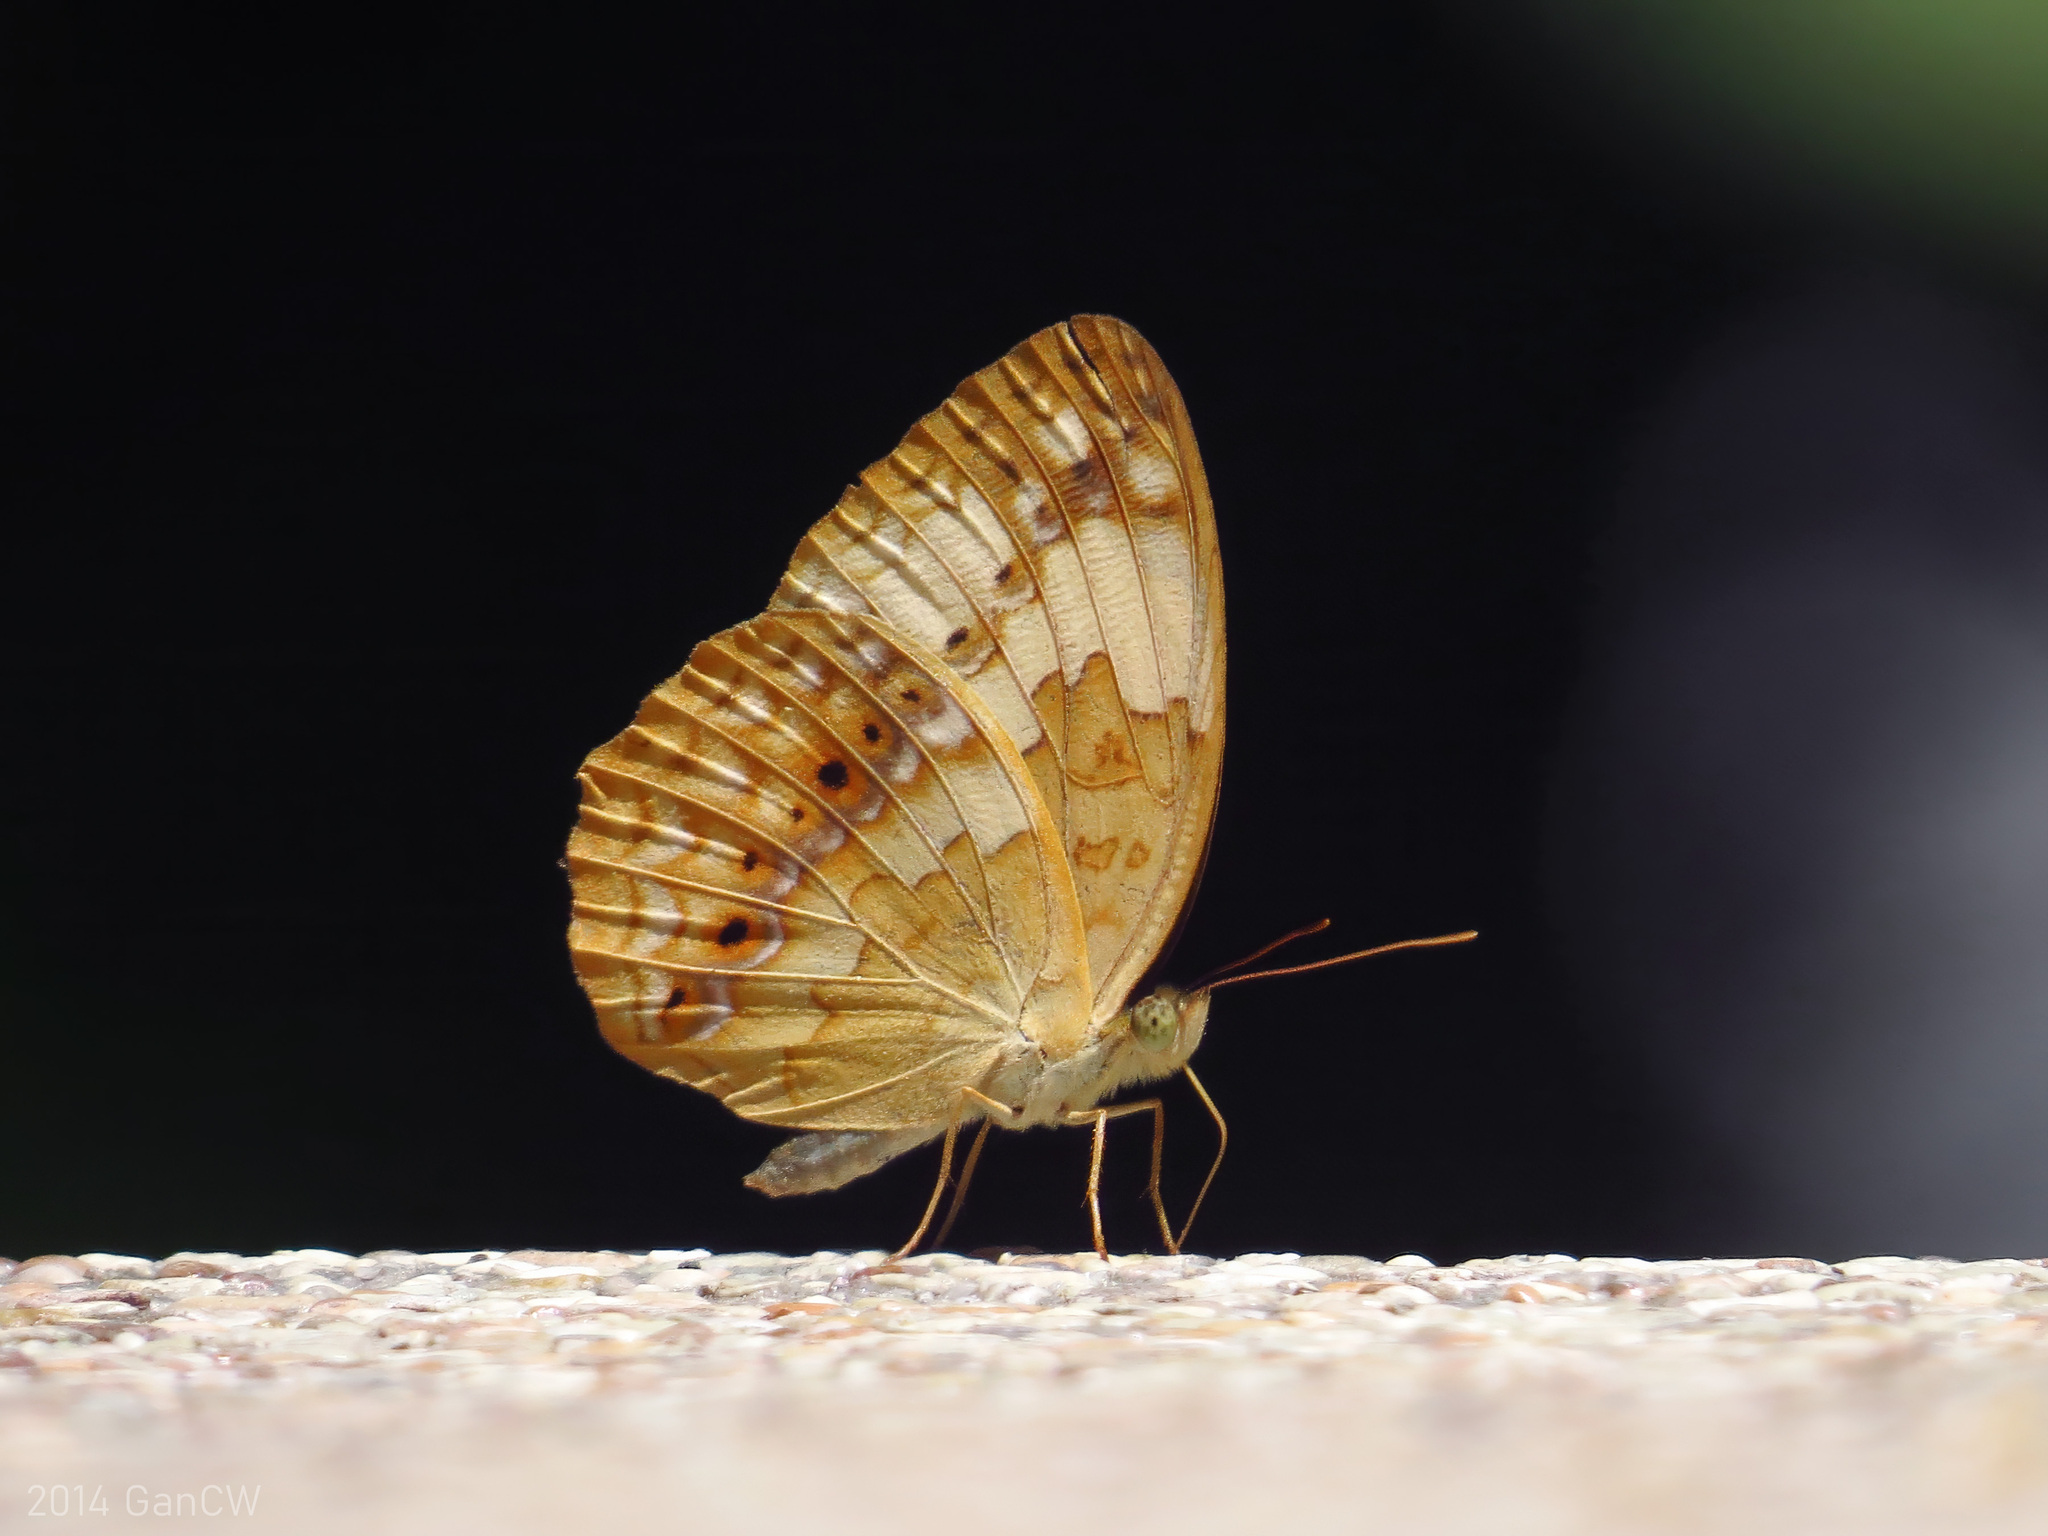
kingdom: Animalia
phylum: Arthropoda
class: Insecta
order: Lepidoptera
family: Nymphalidae
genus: Cupha
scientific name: Cupha erymanthis
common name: Rustic
